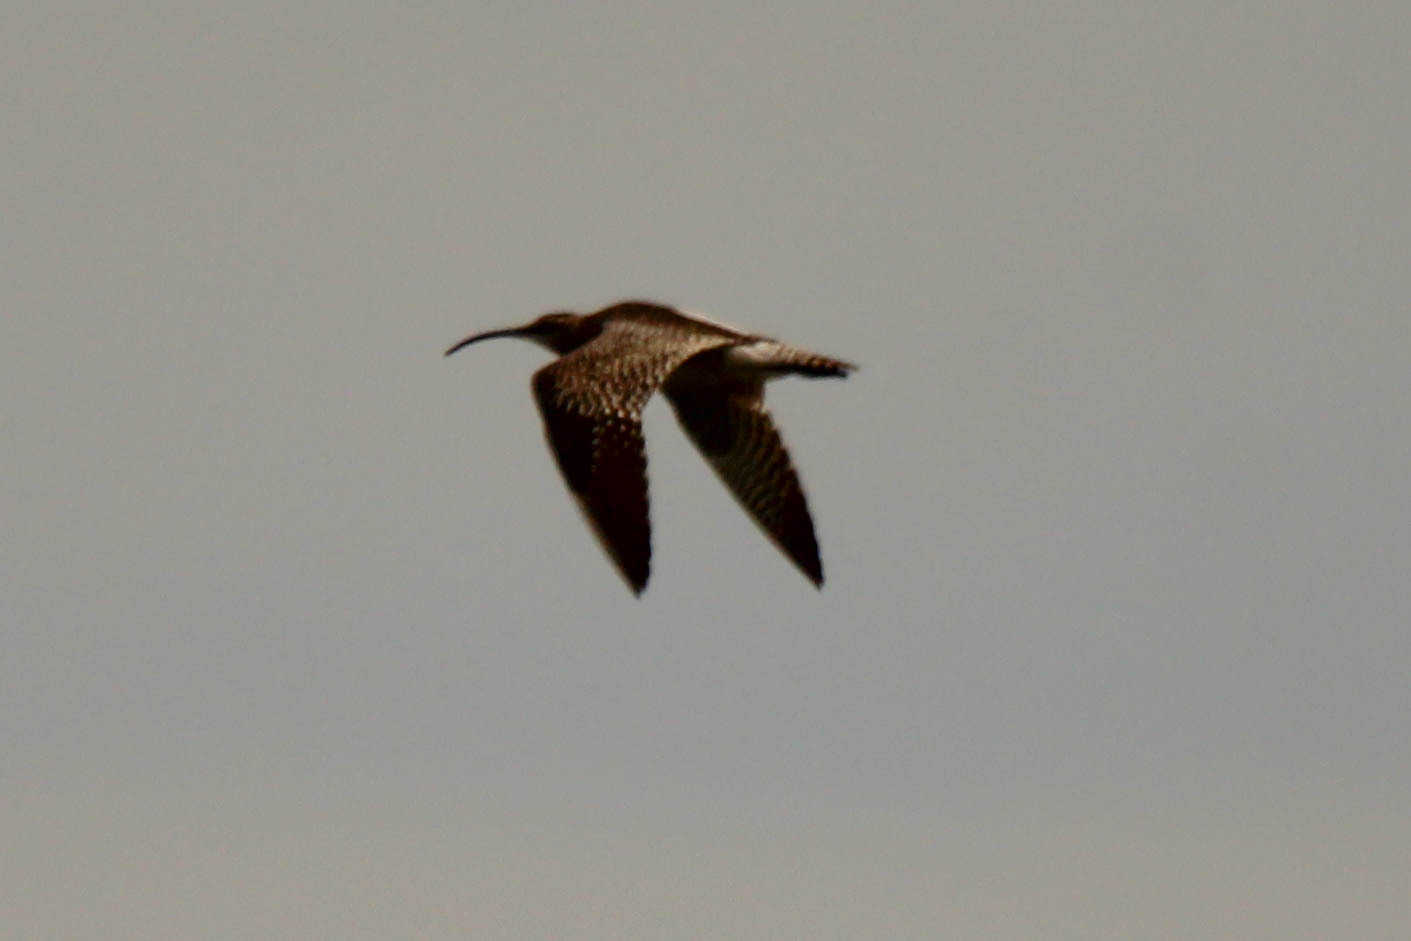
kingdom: Animalia
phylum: Chordata
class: Aves
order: Charadriiformes
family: Scolopacidae
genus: Numenius
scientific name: Numenius phaeopus
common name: Whimbrel
